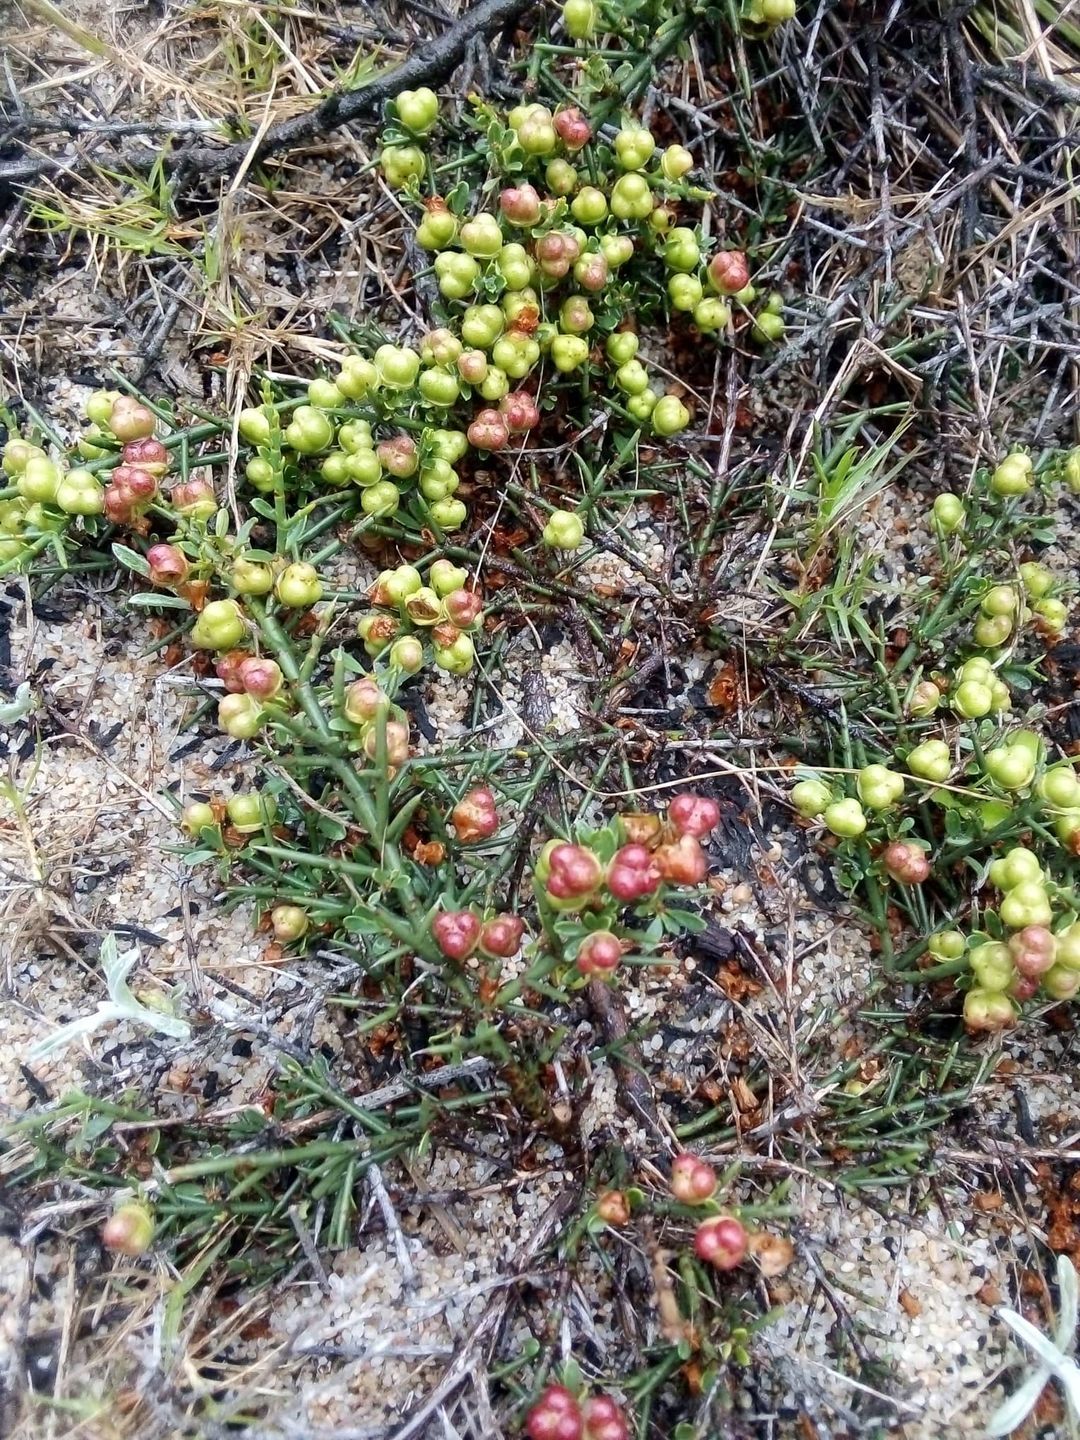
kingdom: Plantae
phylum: Tracheophyta
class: Magnoliopsida
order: Rosales
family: Rhamnaceae
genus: Discaria
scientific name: Discaria americana
